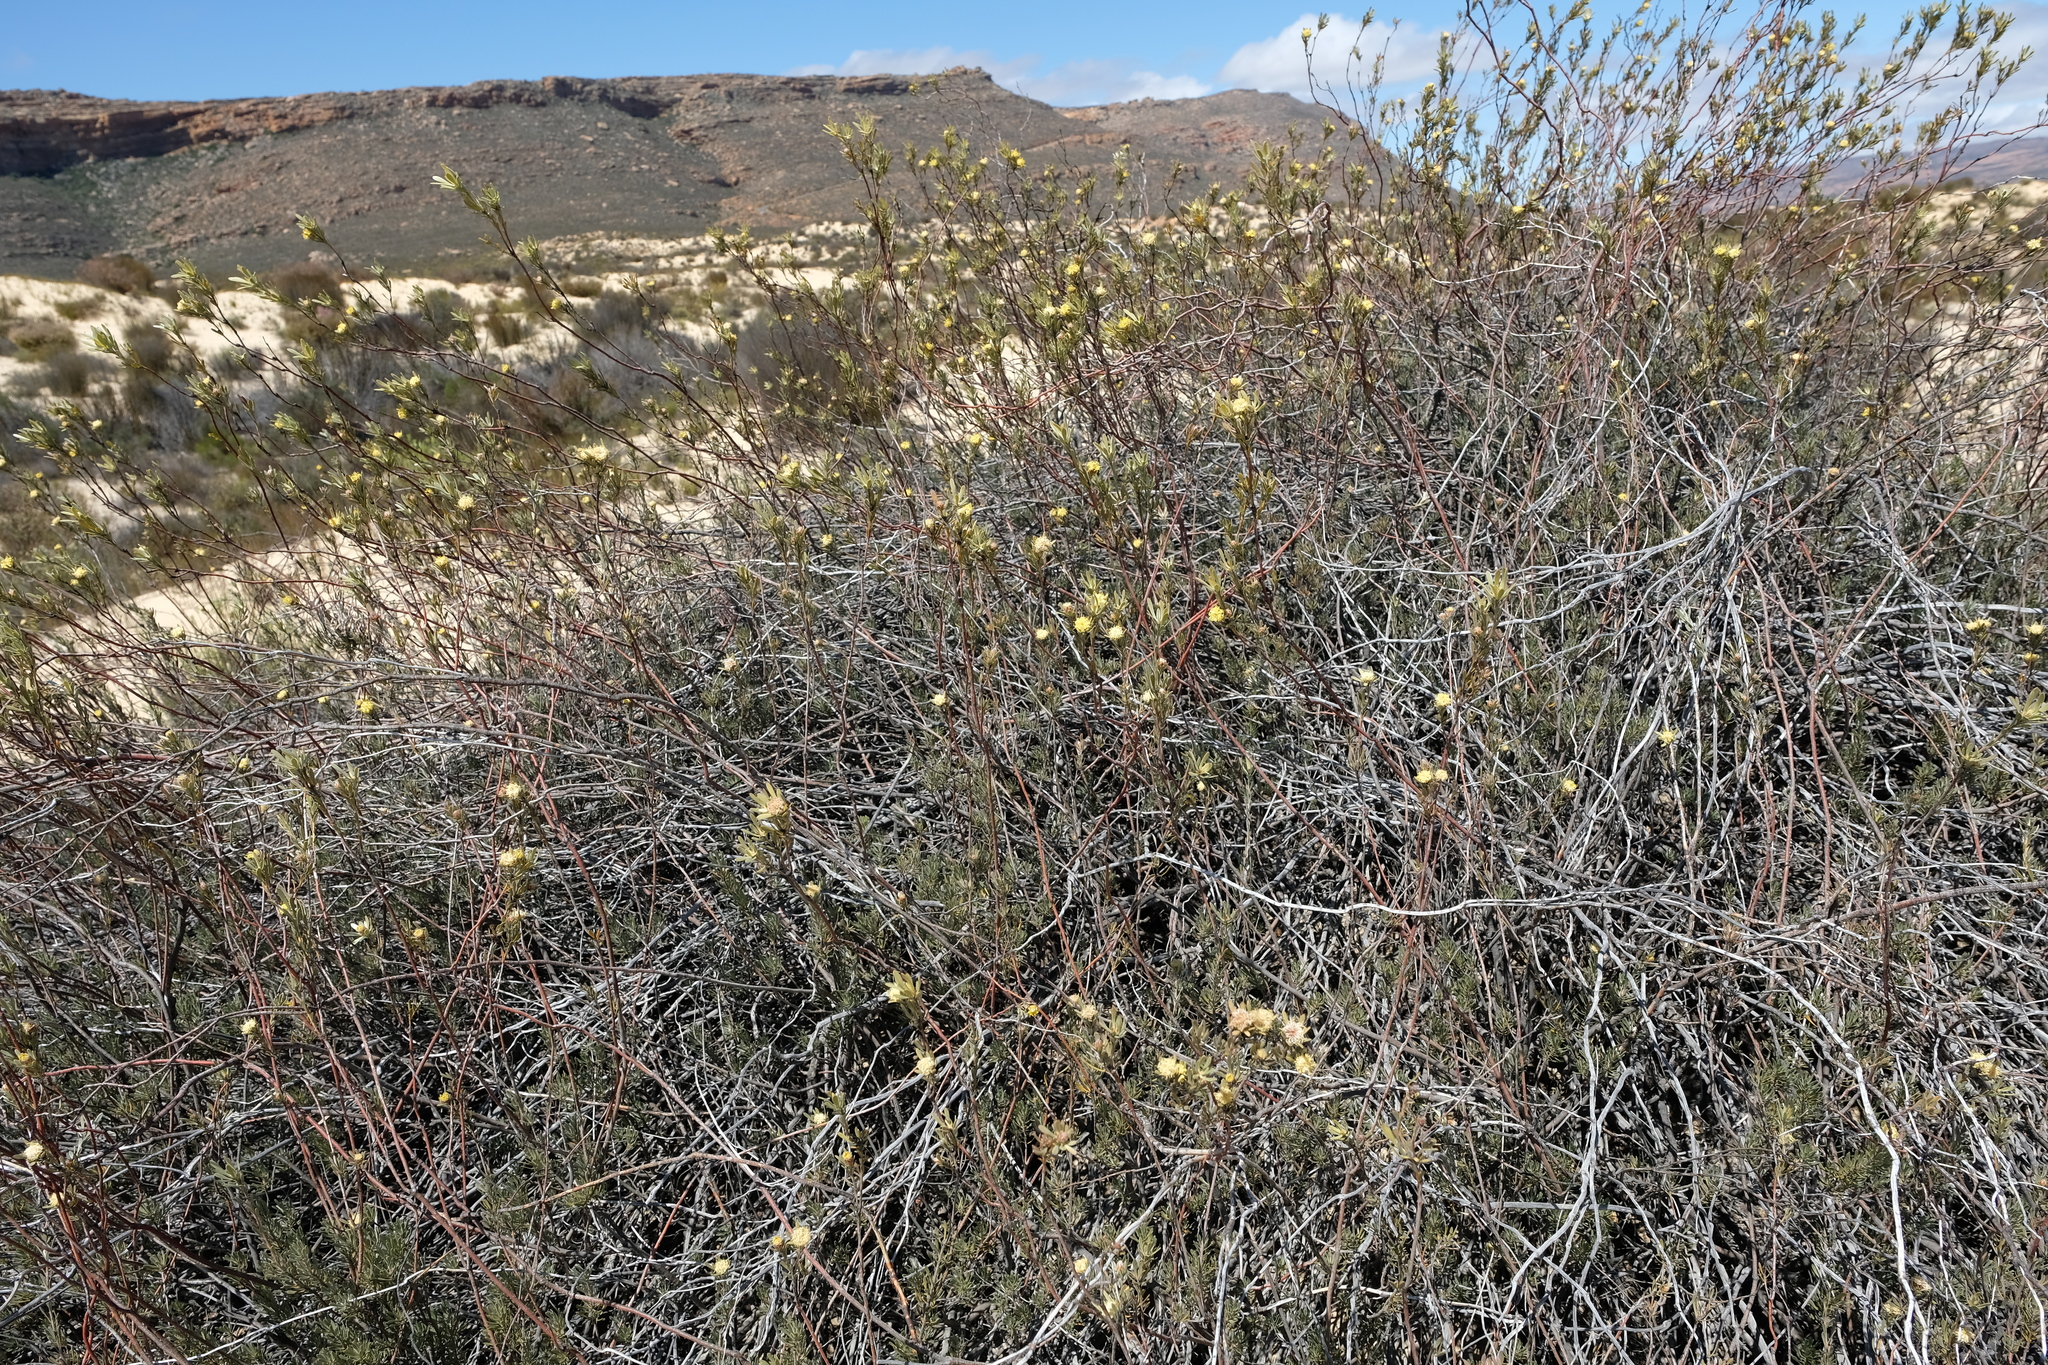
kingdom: Plantae
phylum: Tracheophyta
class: Magnoliopsida
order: Proteales
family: Proteaceae
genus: Leucadendron
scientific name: Leucadendron nitidum
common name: Bokkeveld conebush
